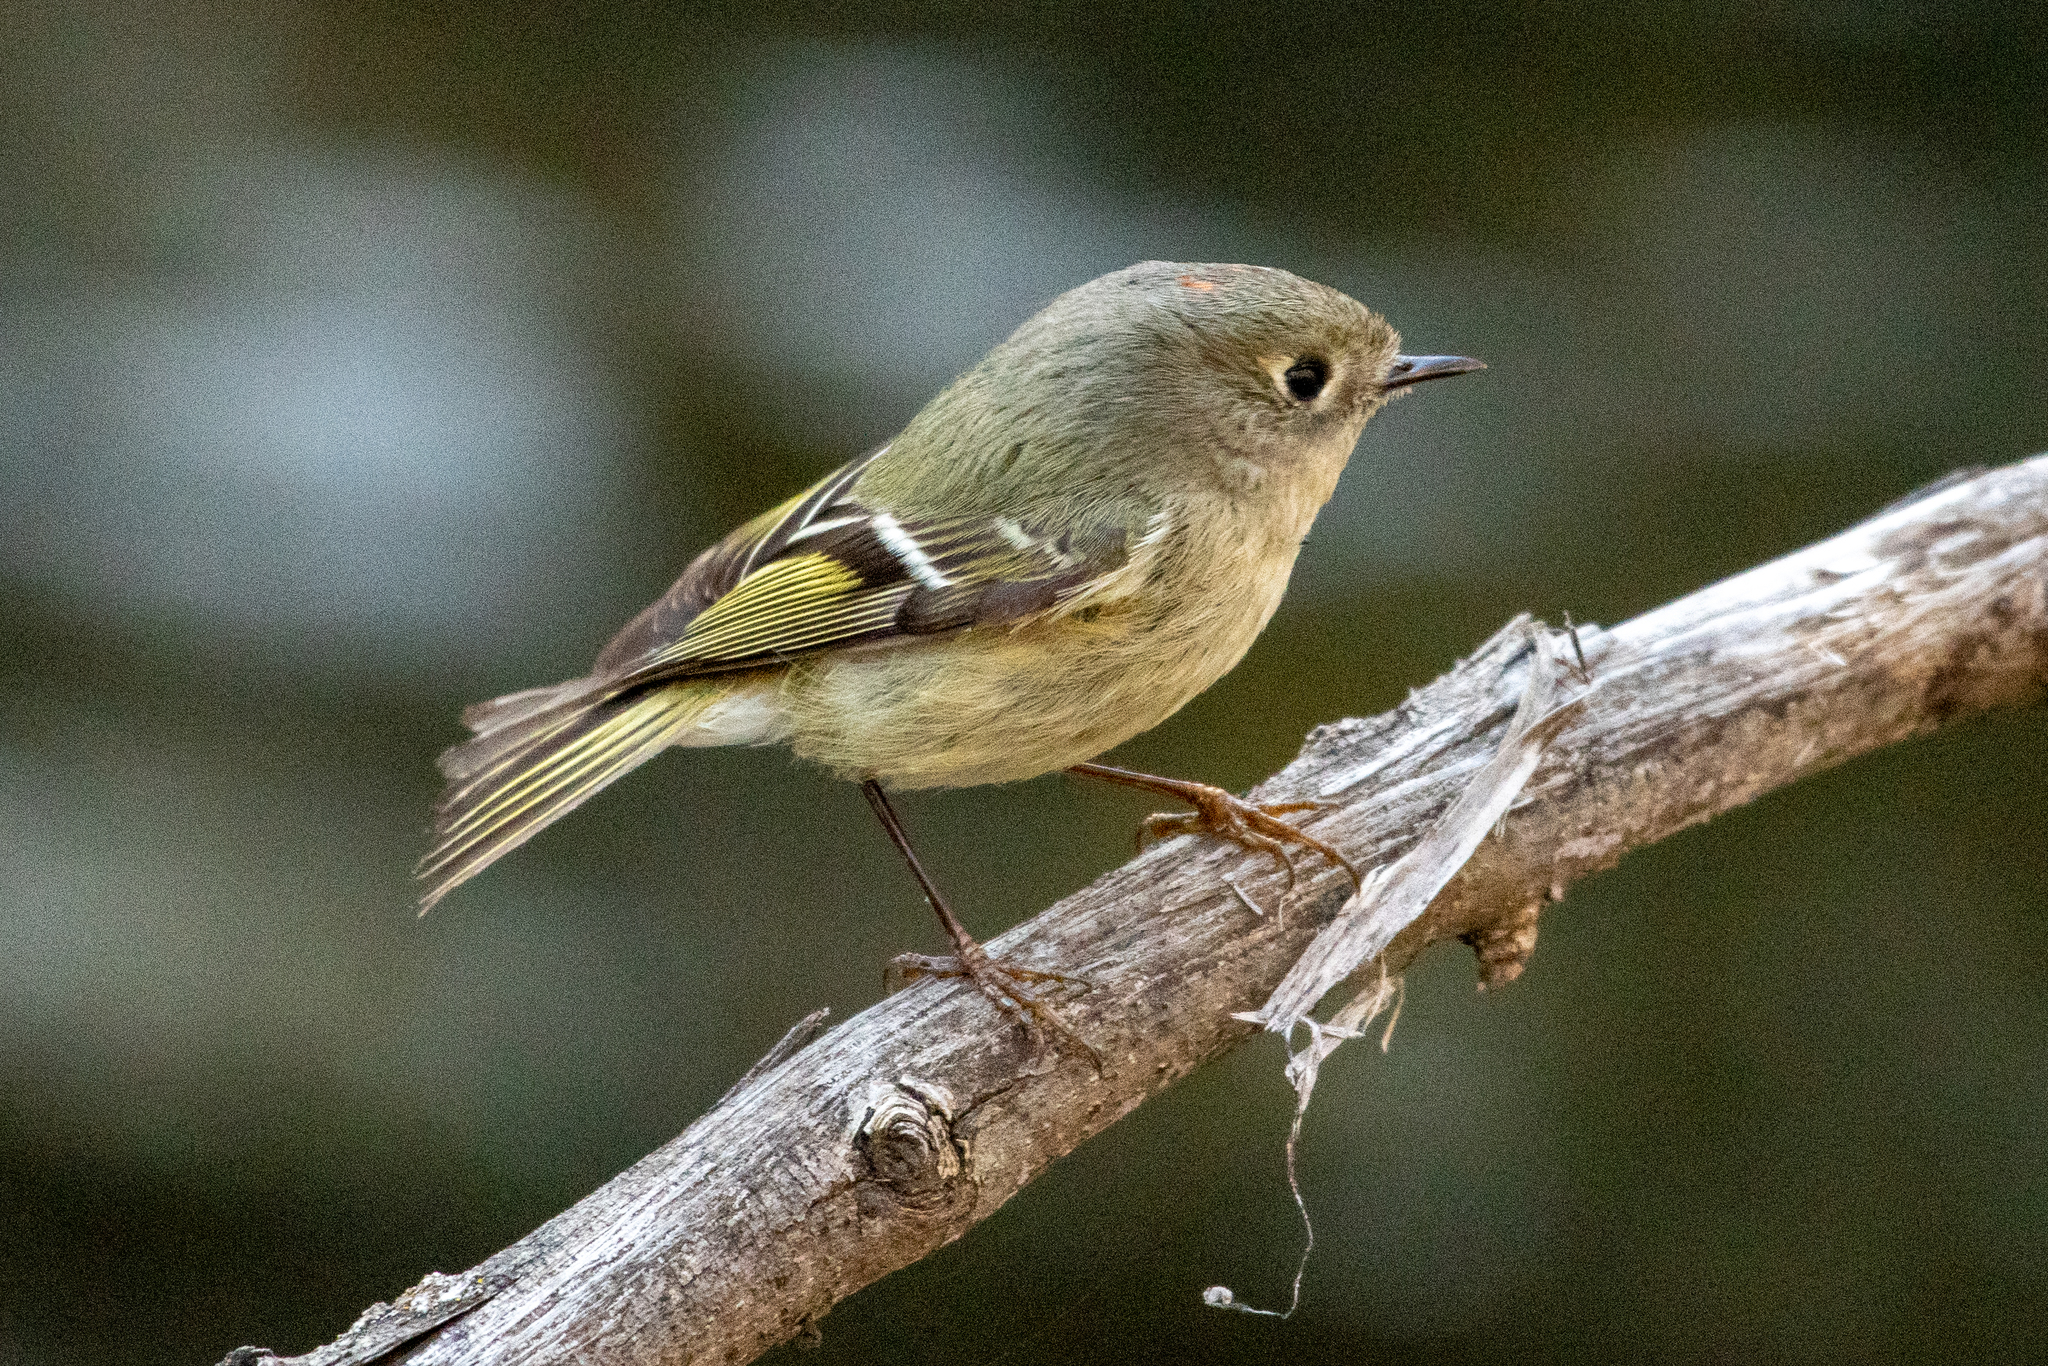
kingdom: Animalia
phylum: Chordata
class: Aves
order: Passeriformes
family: Regulidae
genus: Regulus
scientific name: Regulus calendula
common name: Ruby-crowned kinglet
